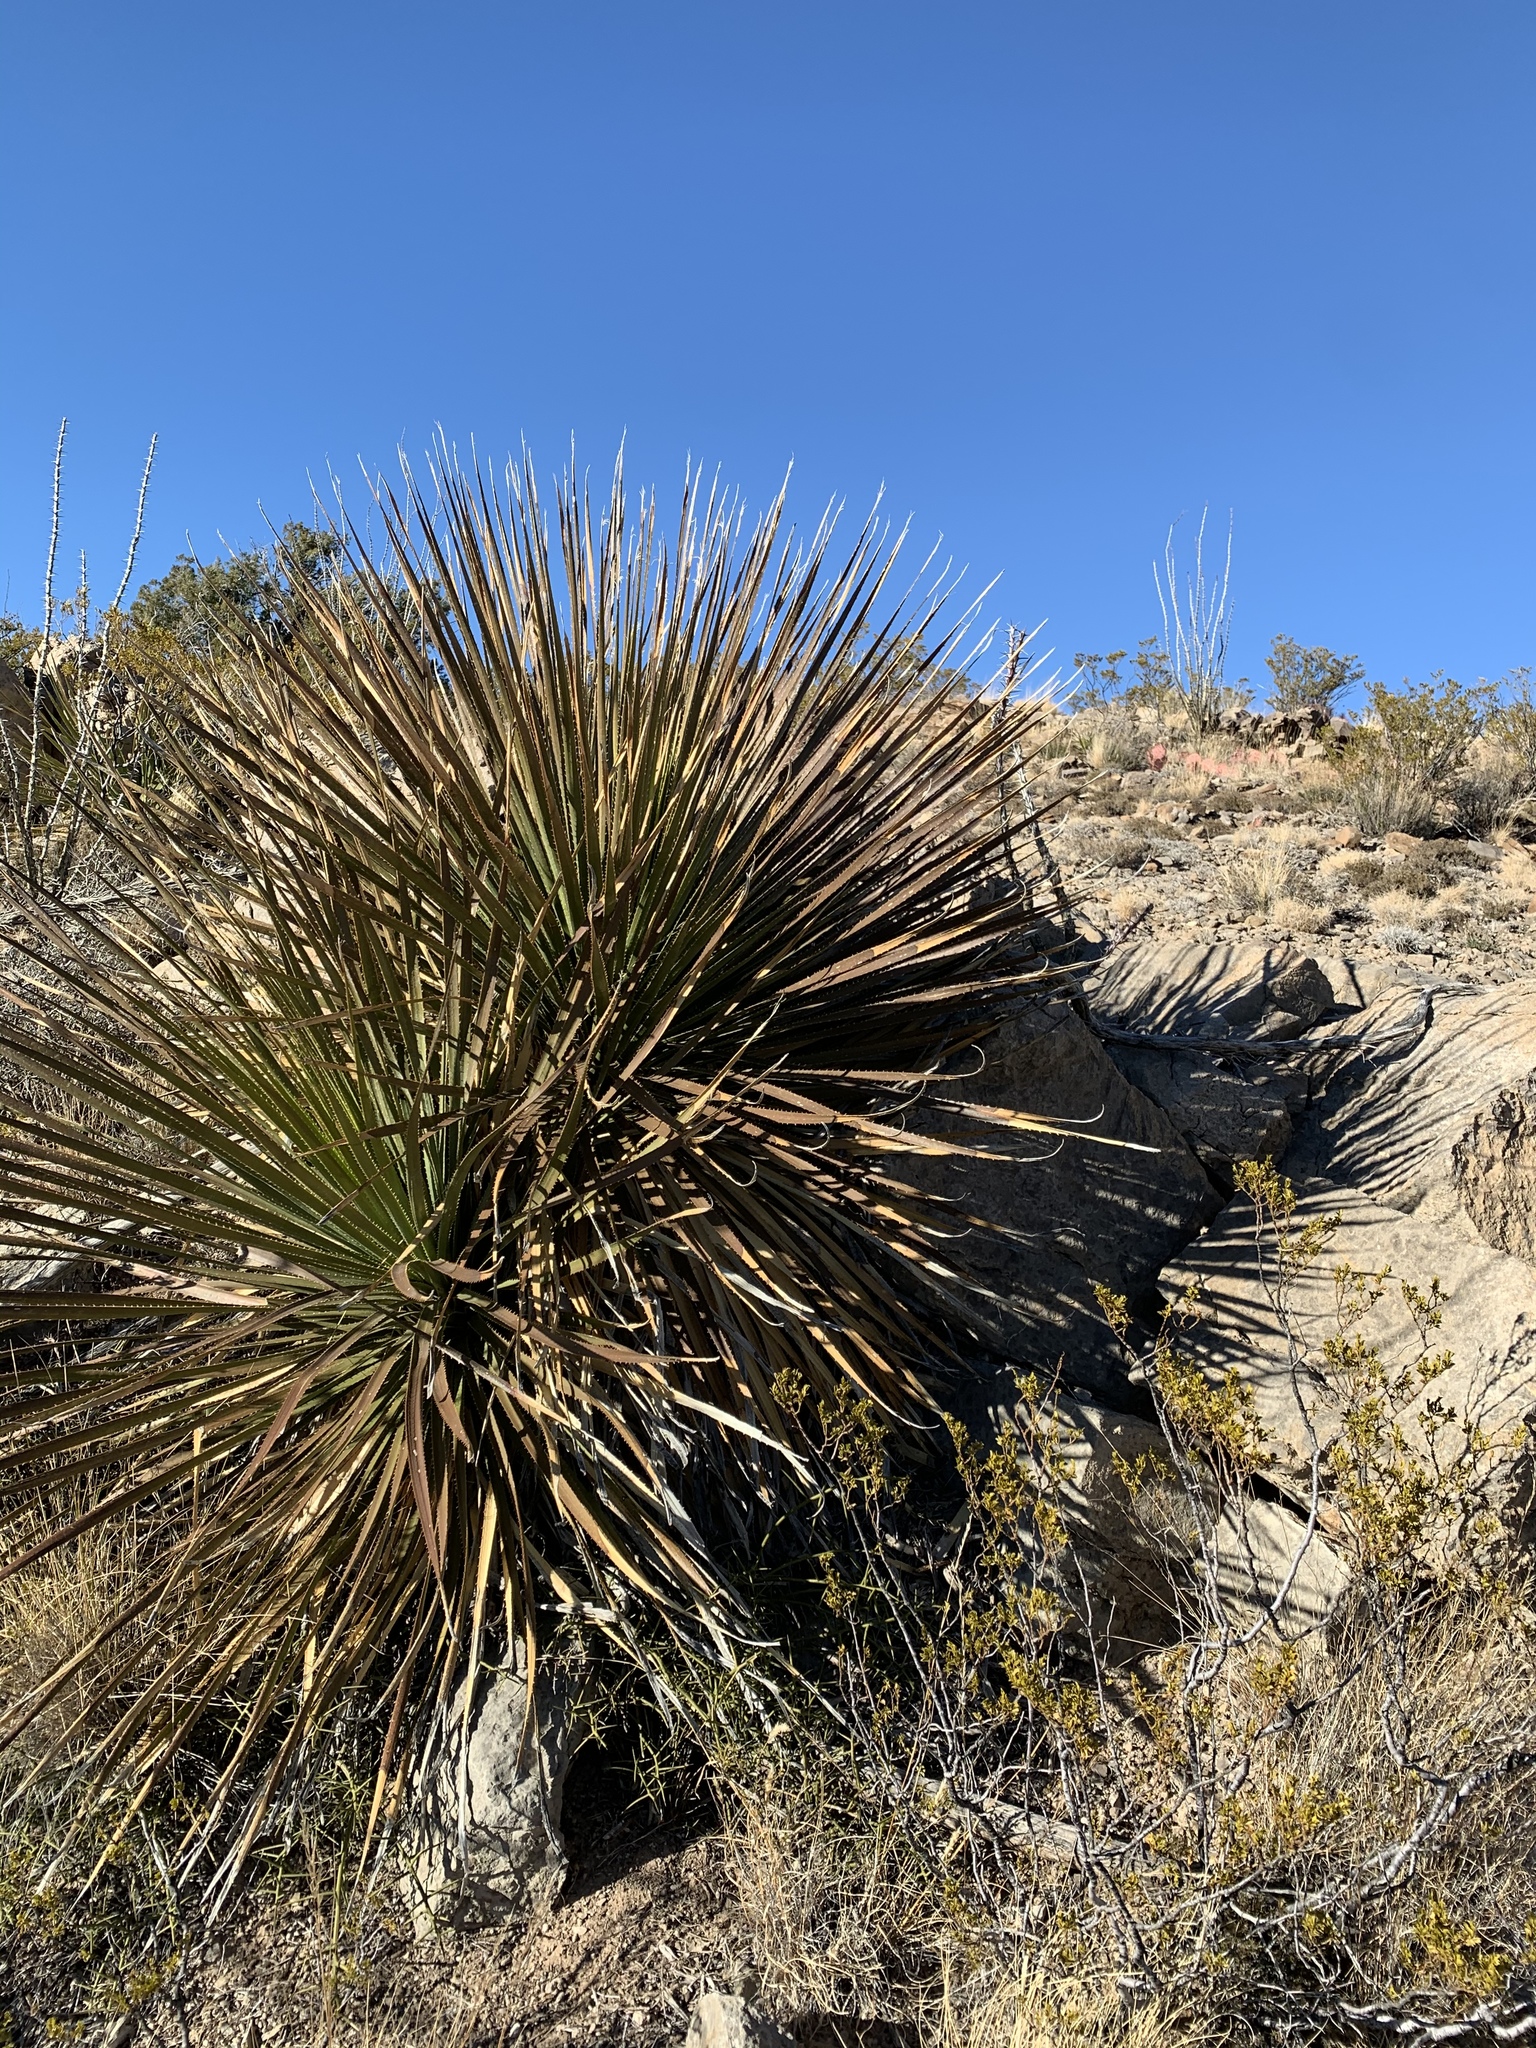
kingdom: Plantae
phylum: Tracheophyta
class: Liliopsida
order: Asparagales
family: Asparagaceae
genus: Dasylirion
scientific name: Dasylirion wheeleri
